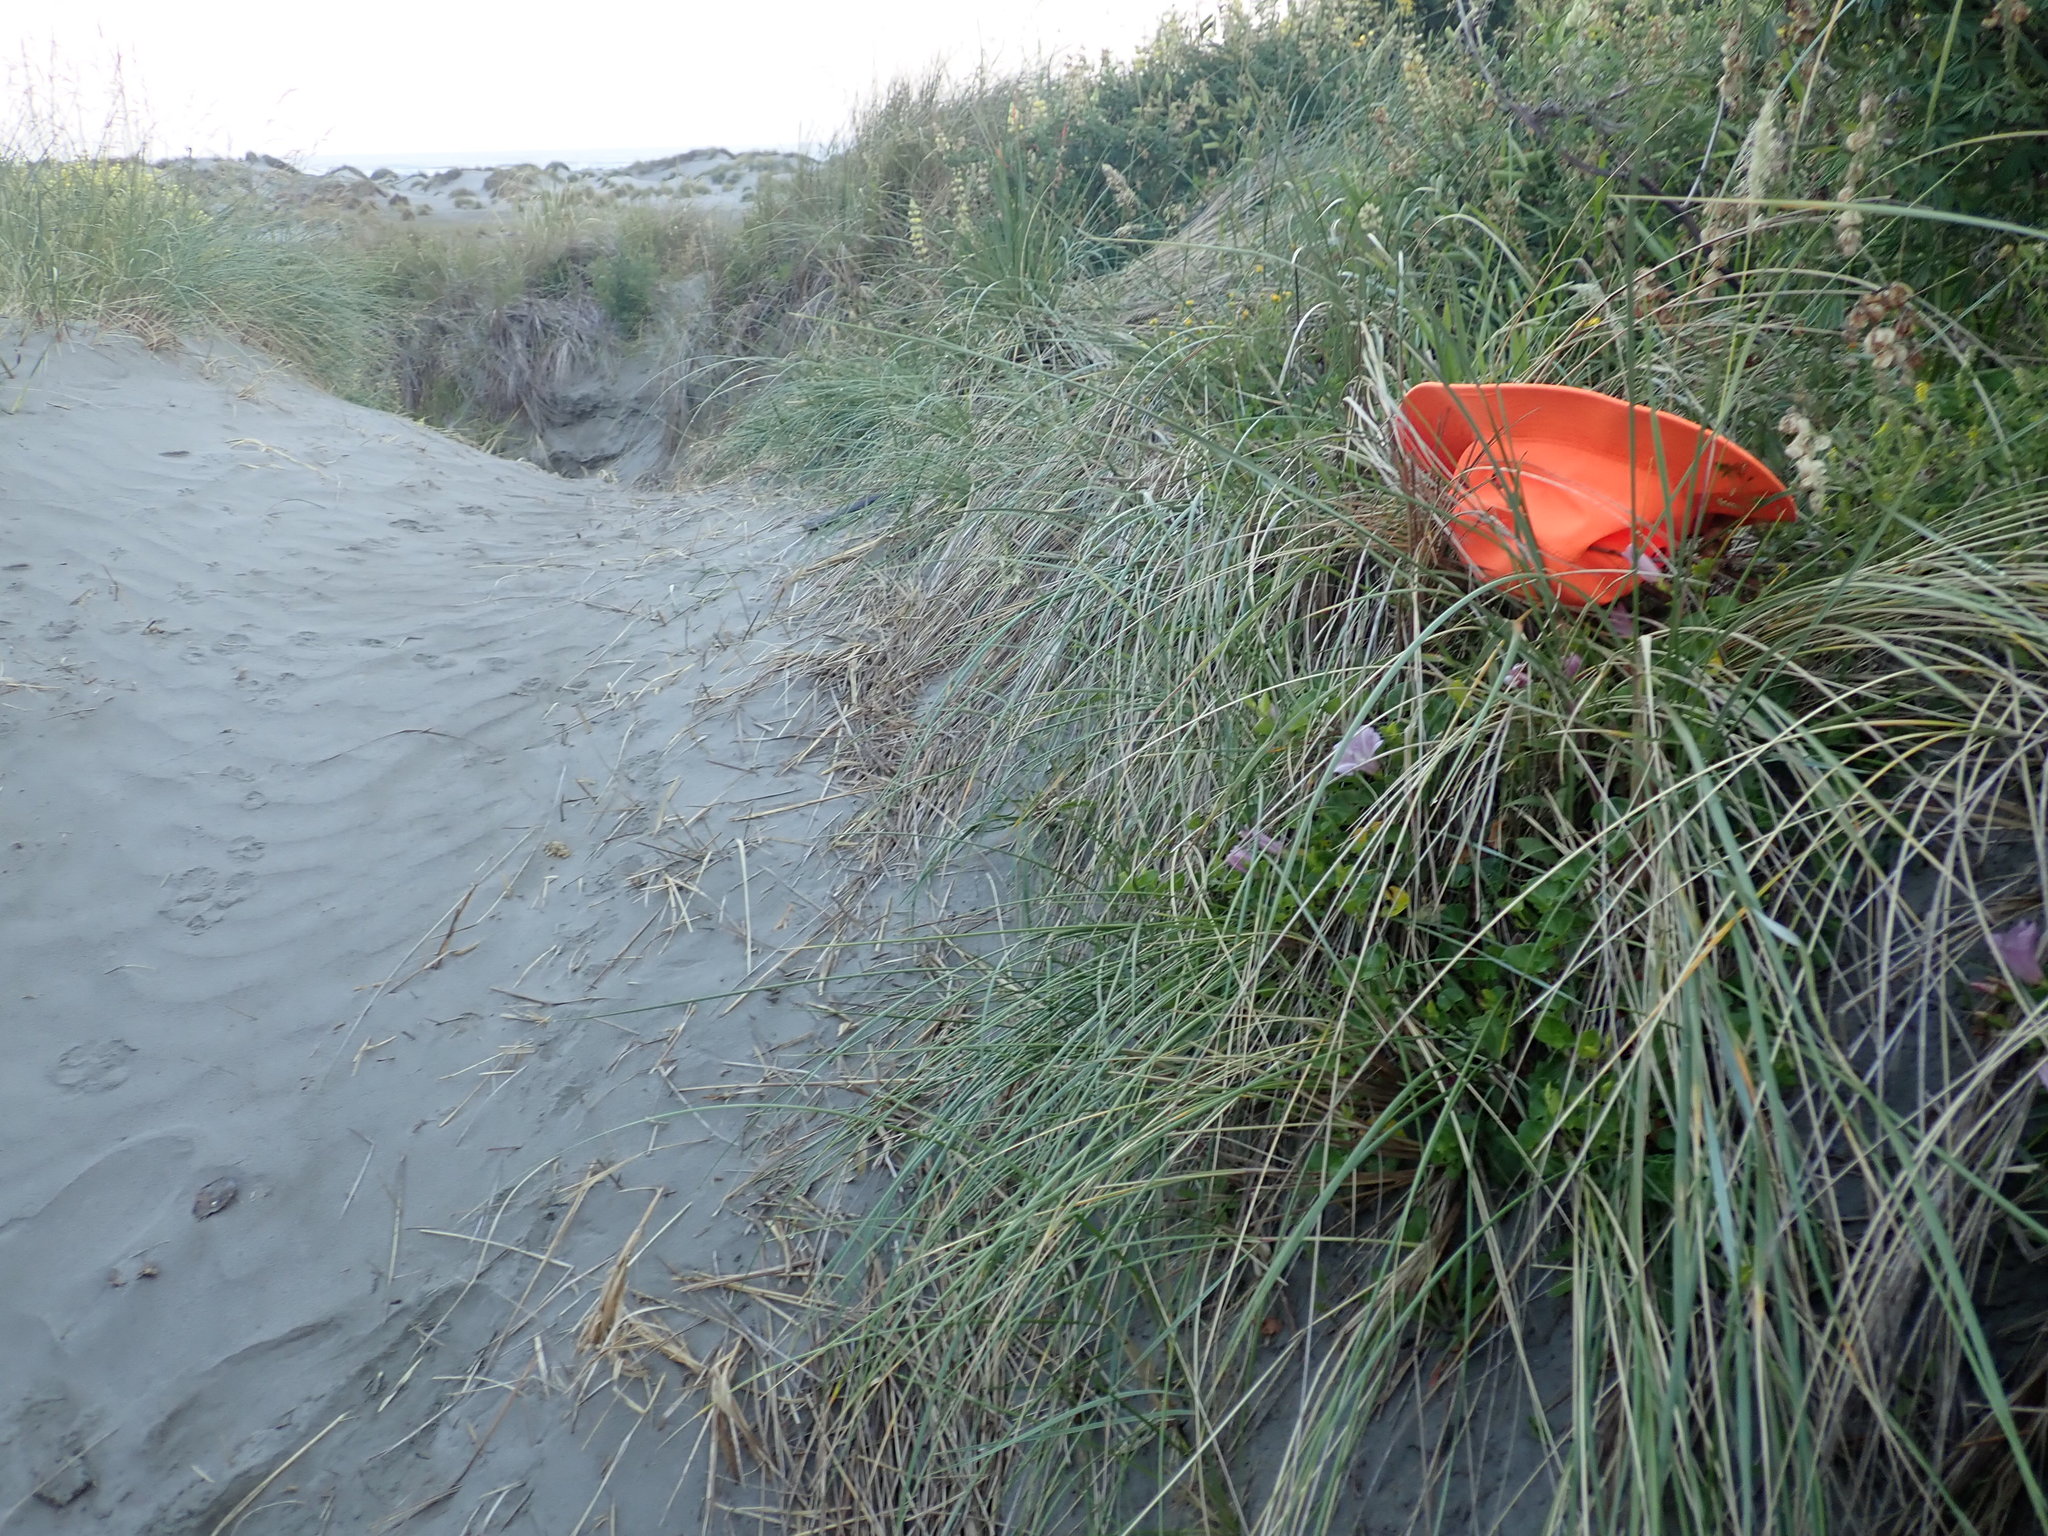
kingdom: Plantae
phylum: Tracheophyta
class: Magnoliopsida
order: Solanales
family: Convolvulaceae
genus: Calystegia
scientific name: Calystegia soldanella
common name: Sea bindweed
